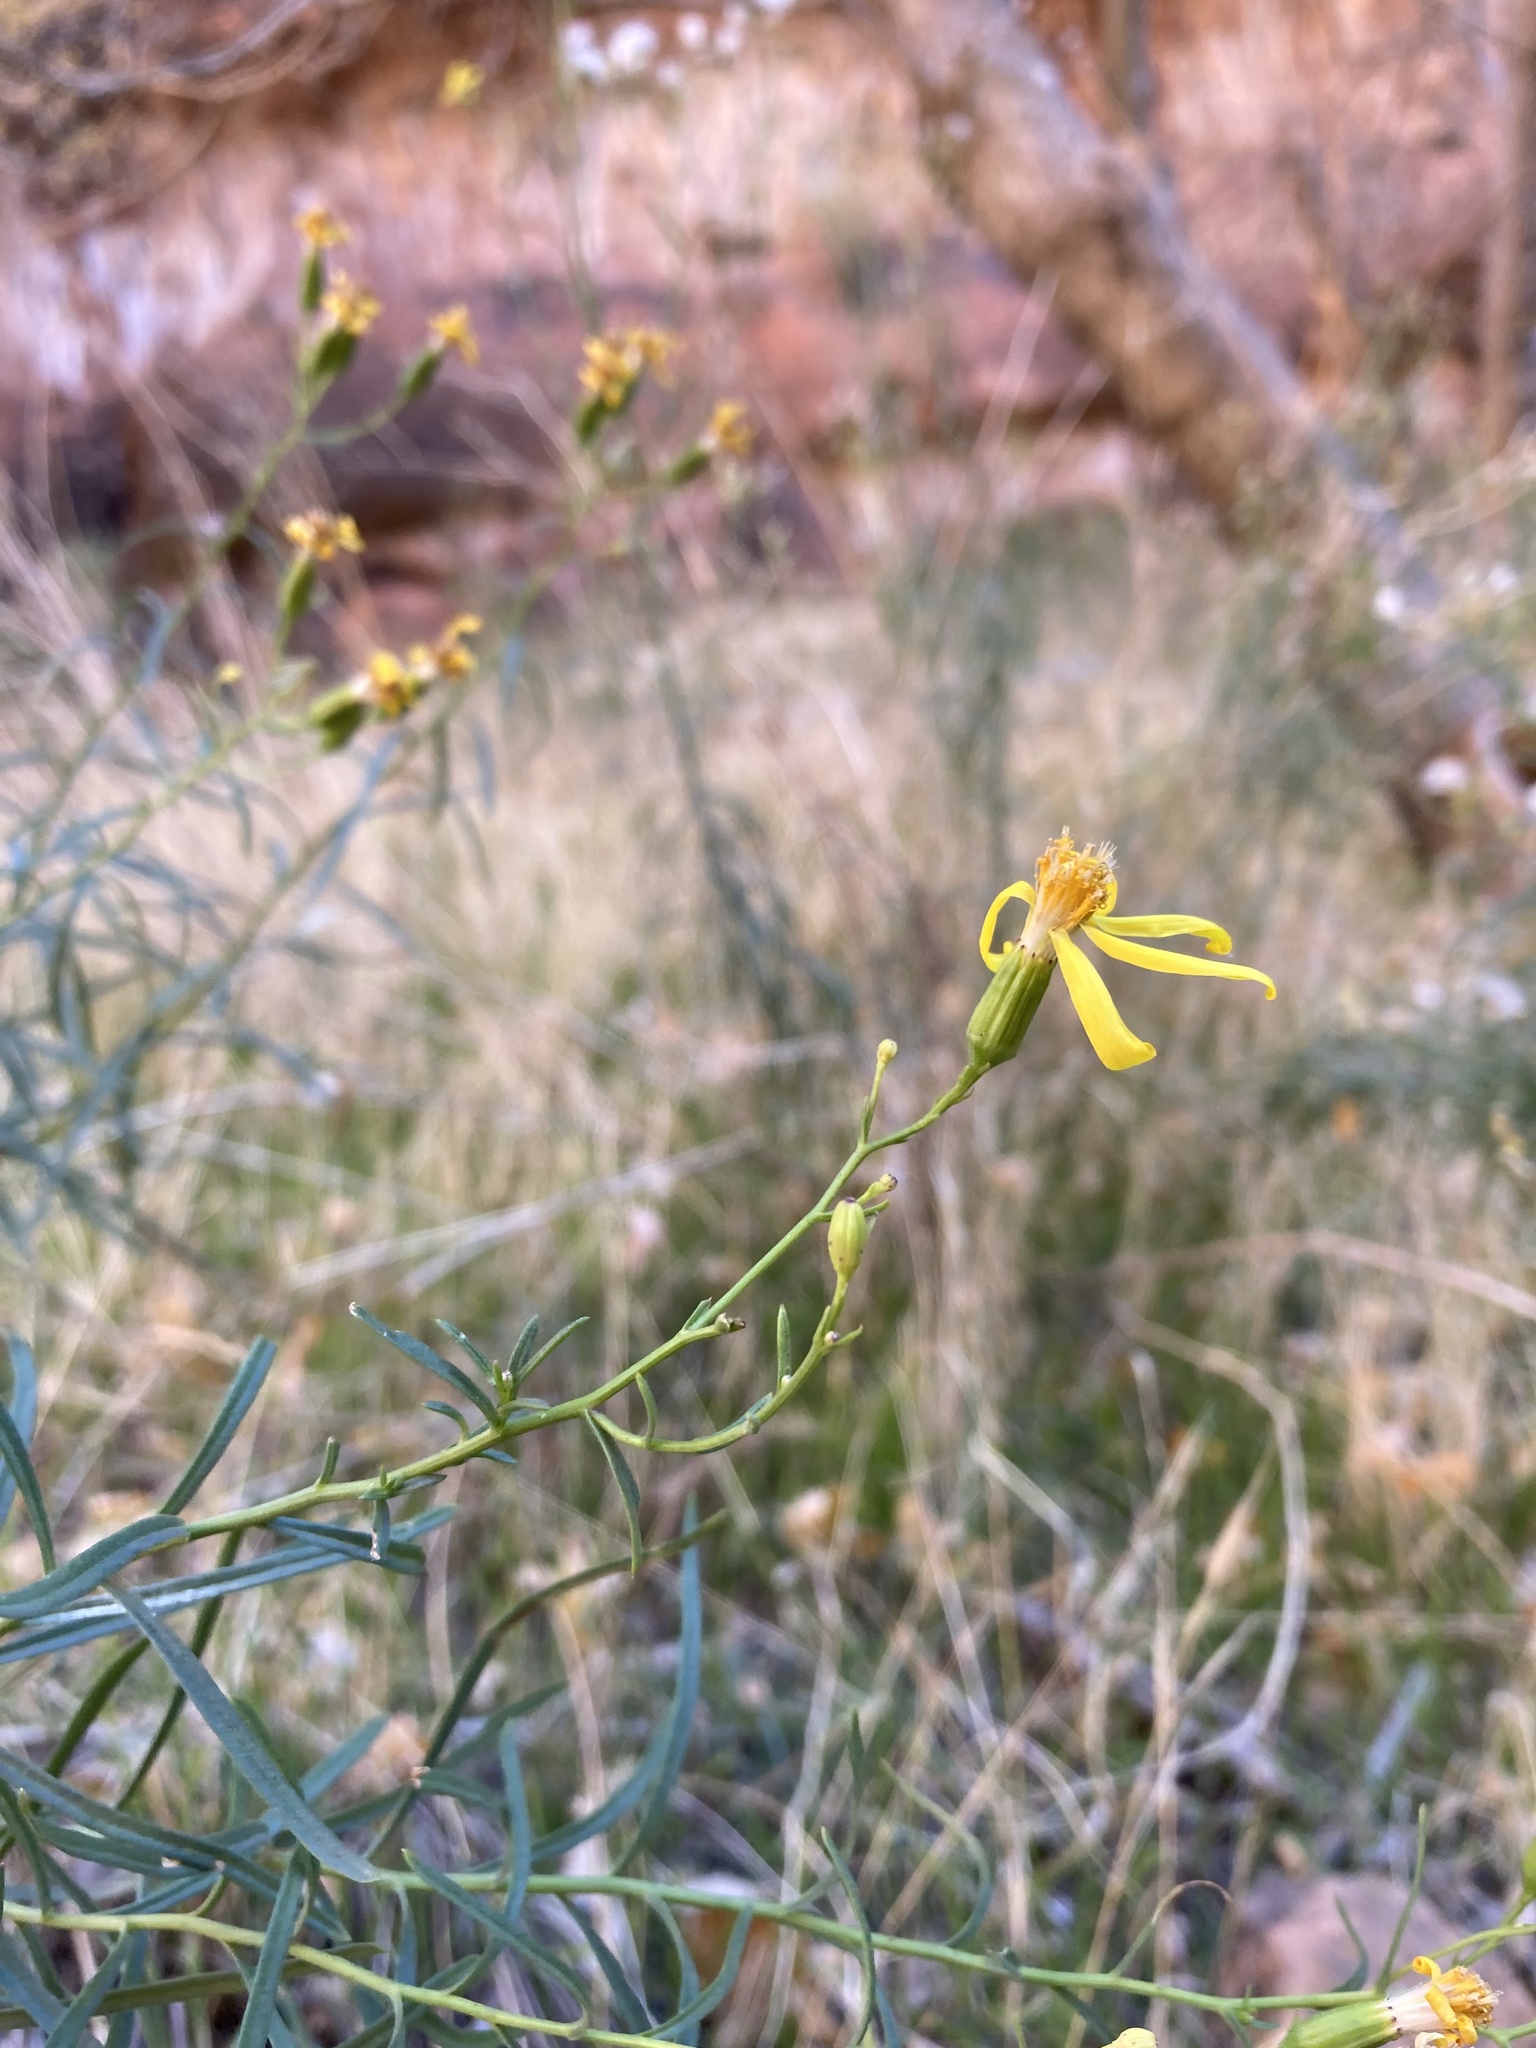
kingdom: Plantae
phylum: Tracheophyta
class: Magnoliopsida
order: Asterales
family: Asteraceae
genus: Senecio
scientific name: Senecio spartioides
